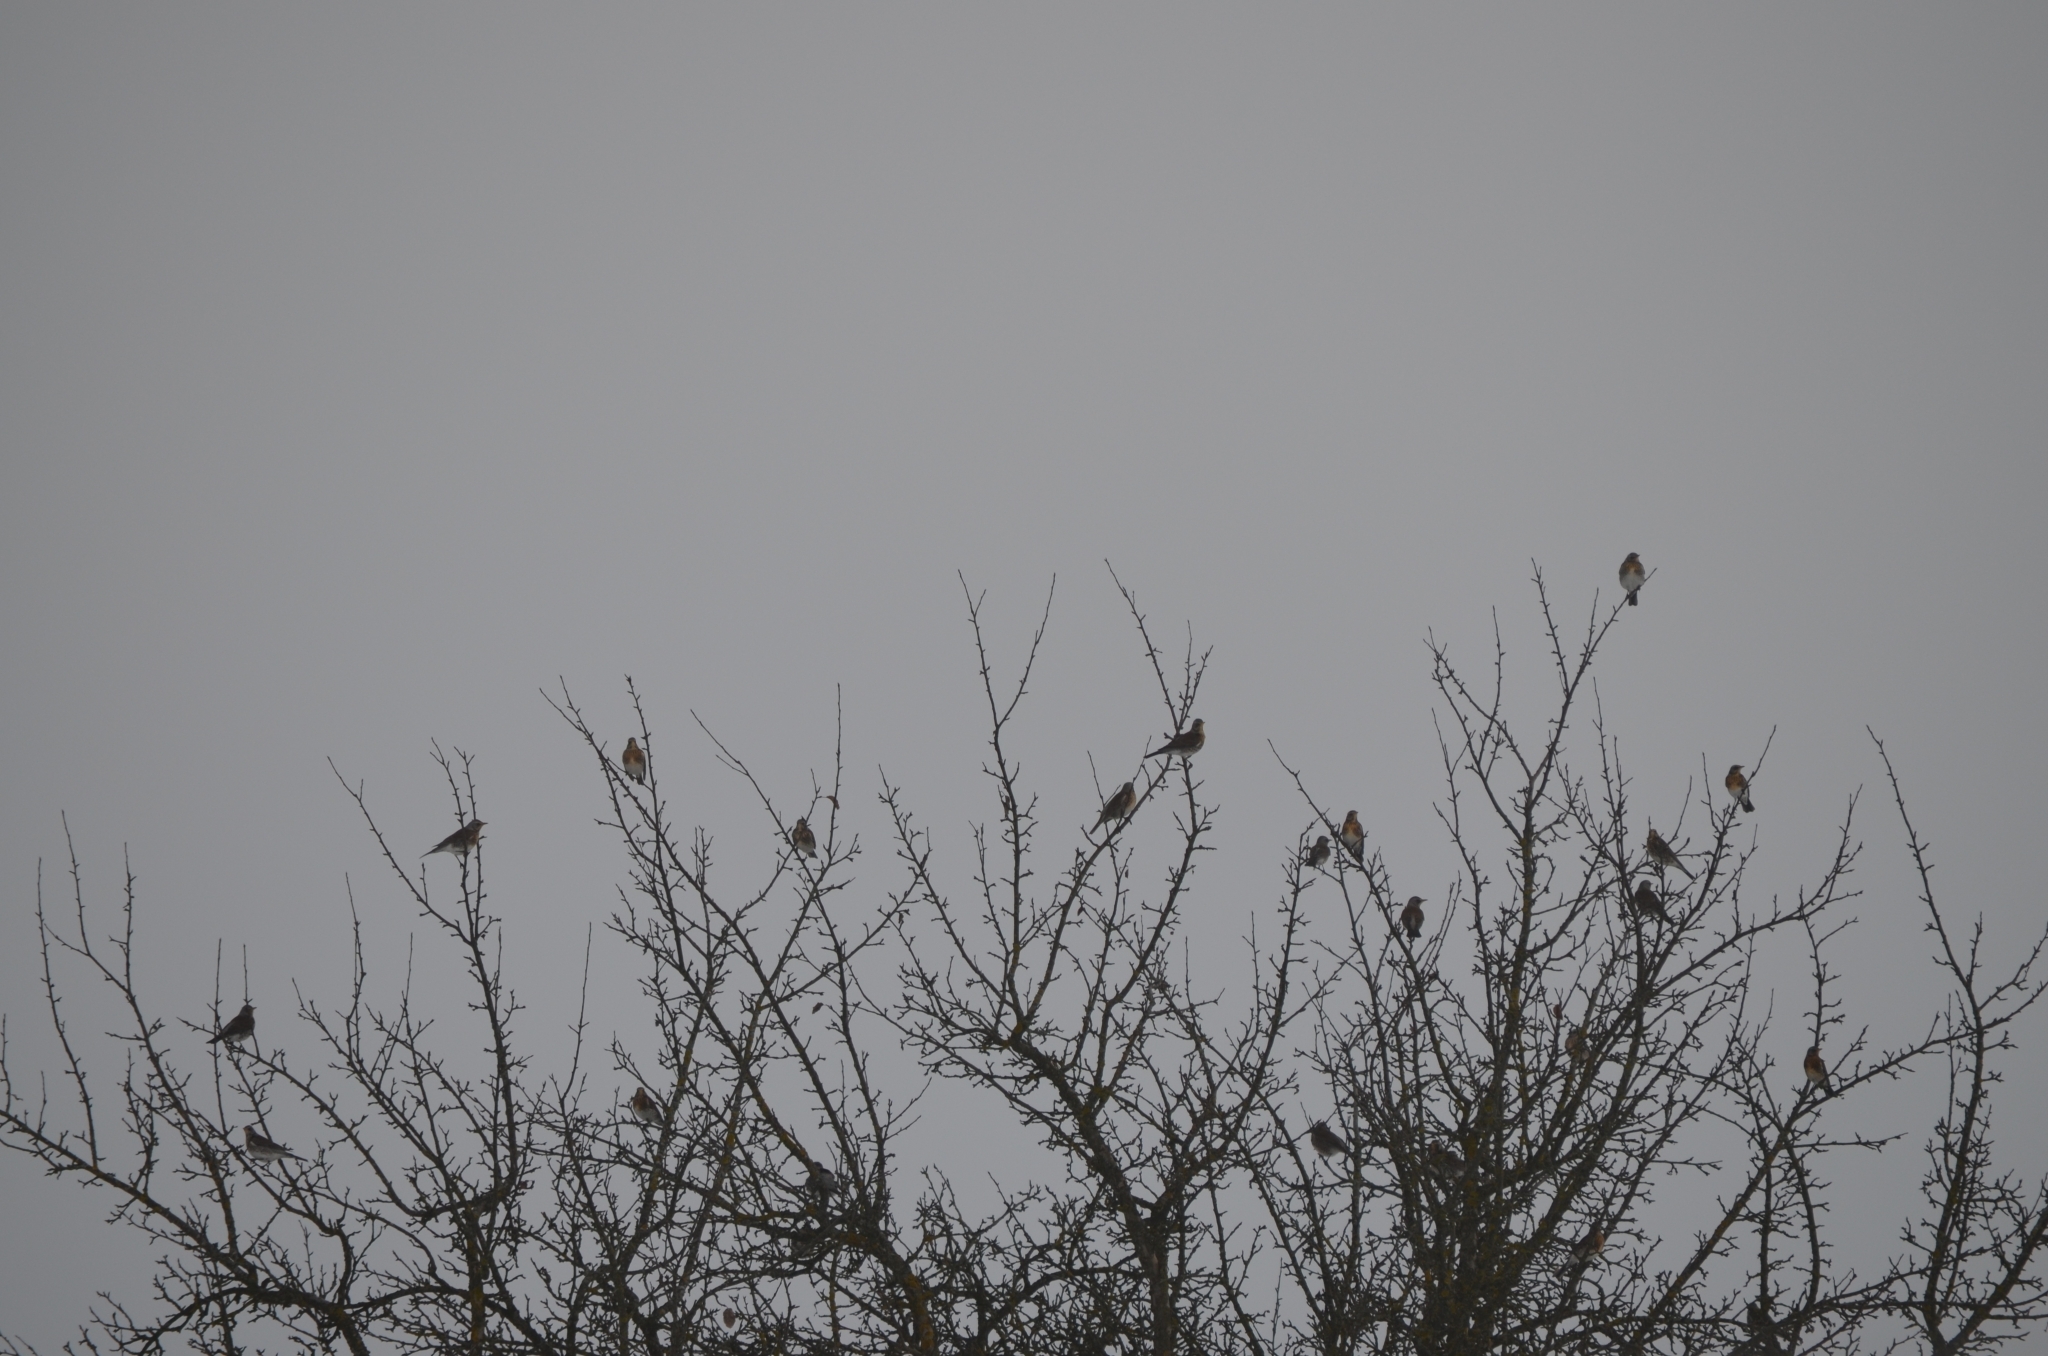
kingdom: Animalia
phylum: Chordata
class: Aves
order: Passeriformes
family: Turdidae
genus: Turdus
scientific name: Turdus pilaris
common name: Fieldfare
